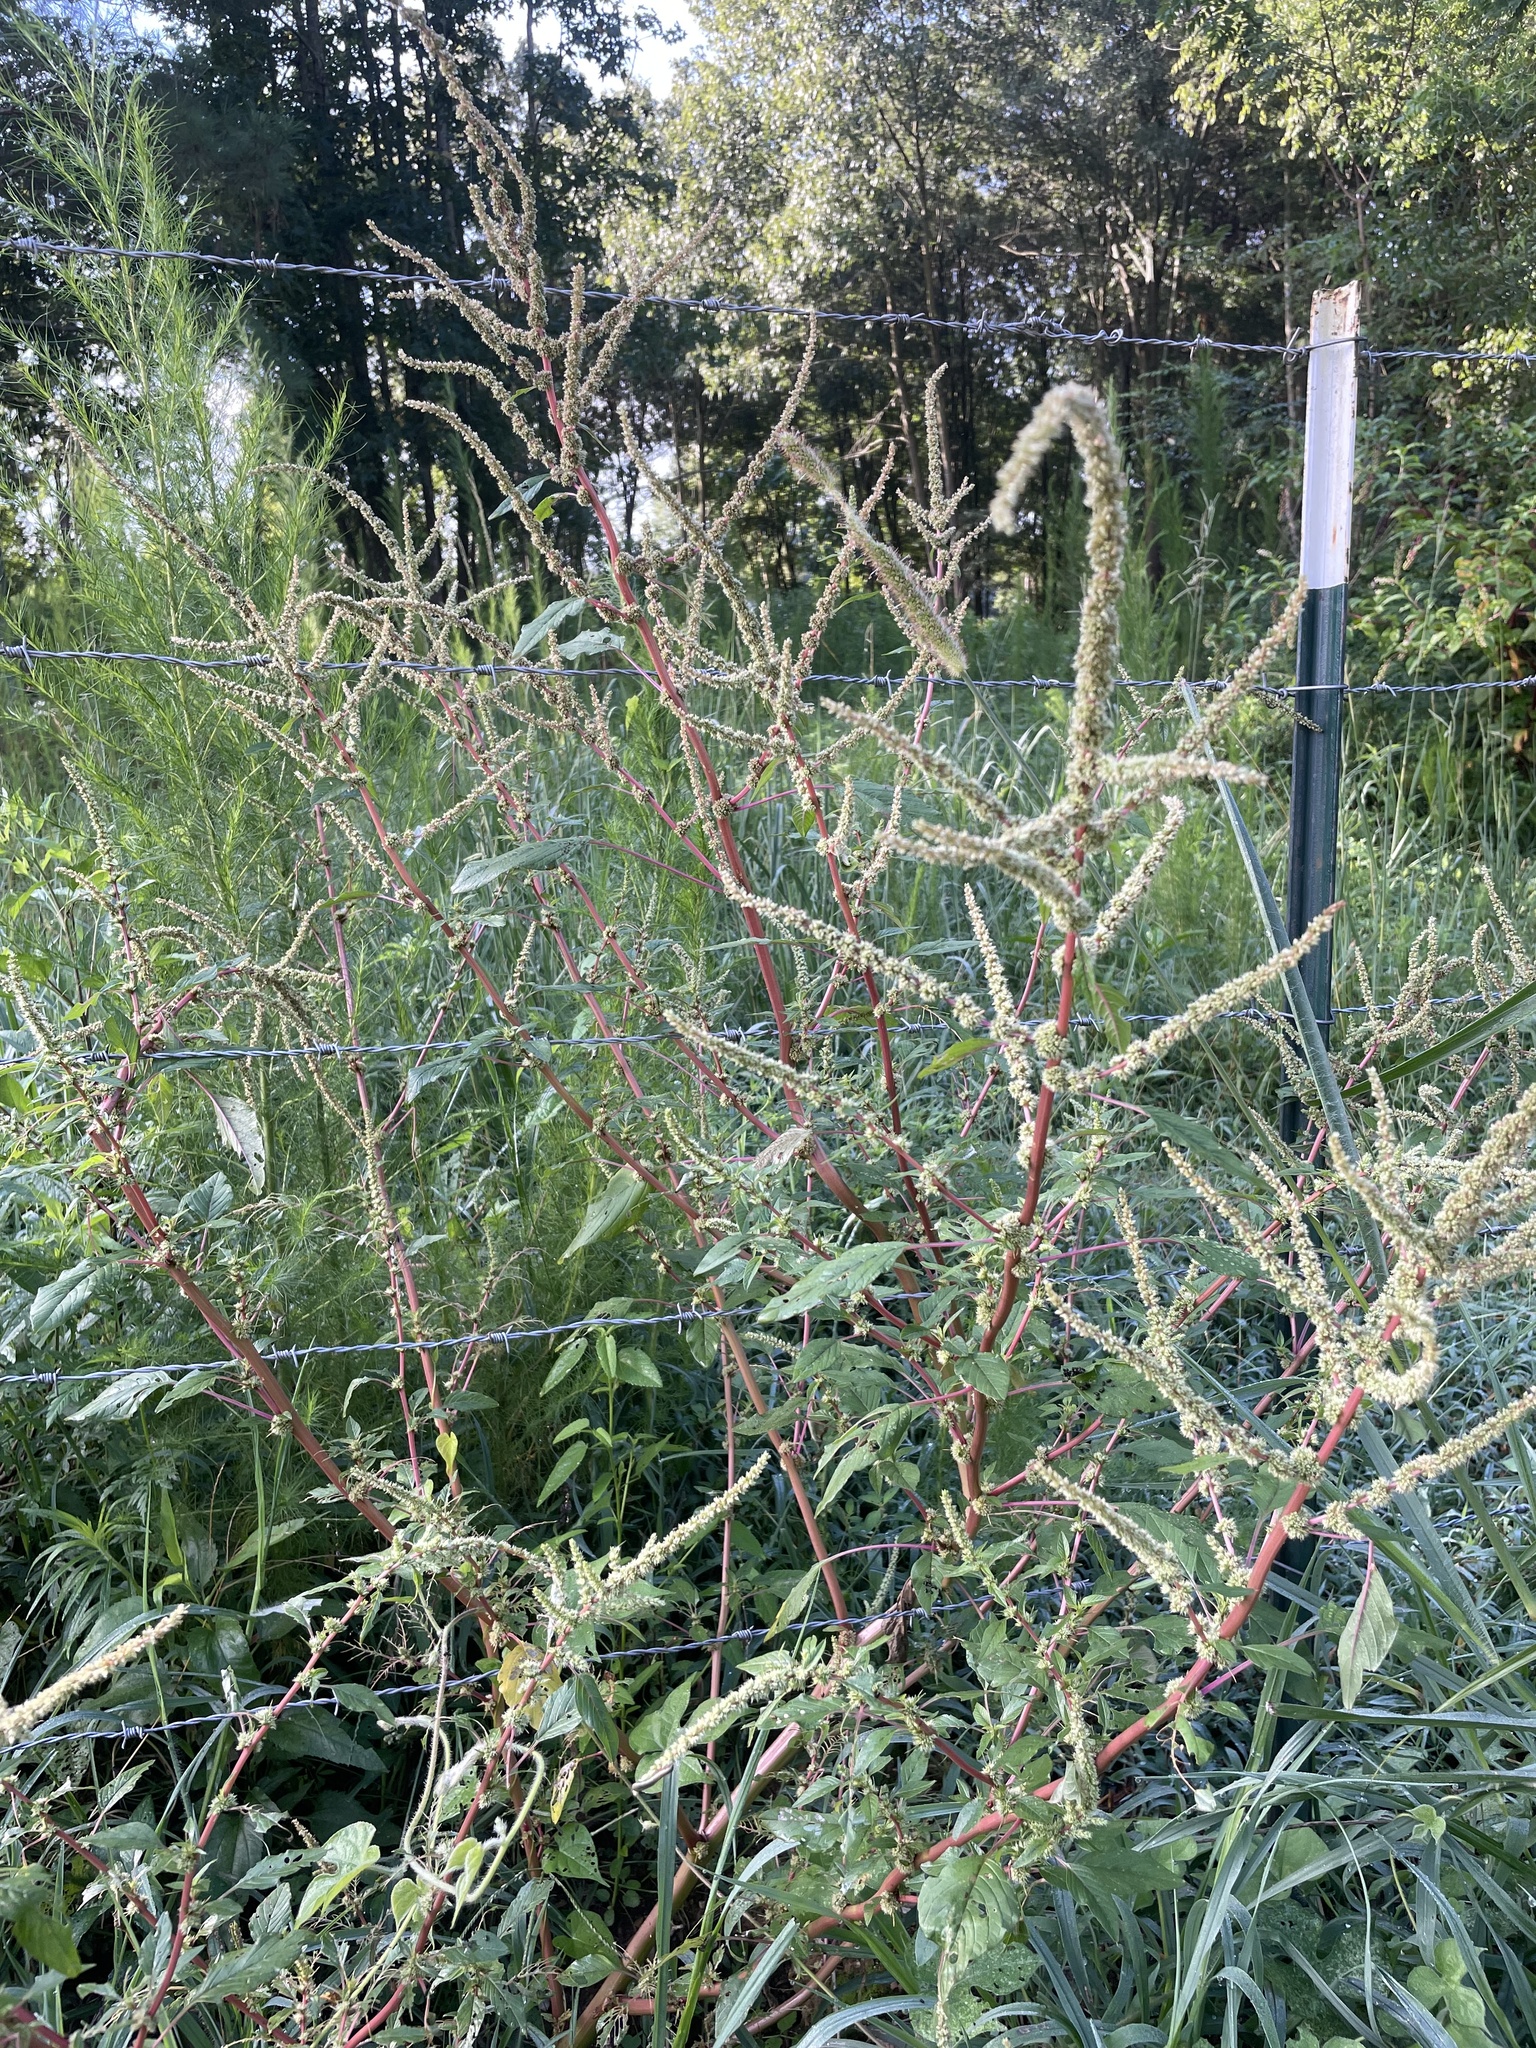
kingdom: Plantae
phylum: Tracheophyta
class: Magnoliopsida
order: Caryophyllales
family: Amaranthaceae
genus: Amaranthus
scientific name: Amaranthus spinosus
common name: Spiny amaranth
